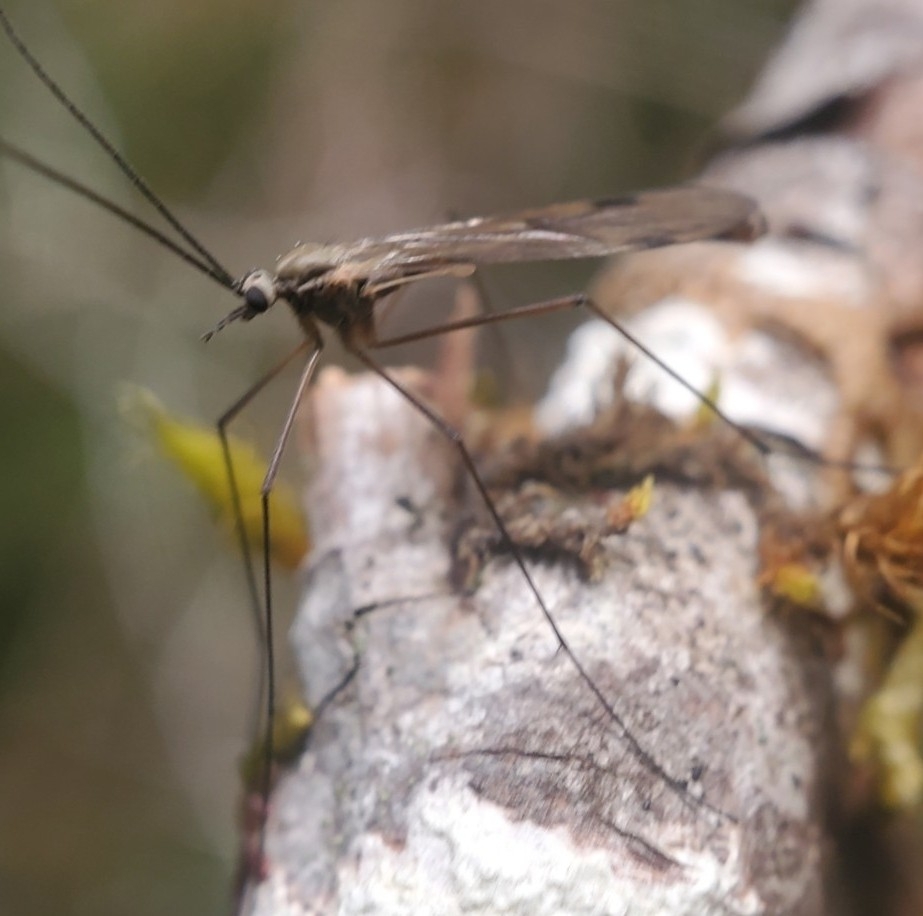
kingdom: Animalia
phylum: Arthropoda
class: Insecta
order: Diptera
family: Pachyneuridae
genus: Cramptonomyia
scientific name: Cramptonomyia spenceri
